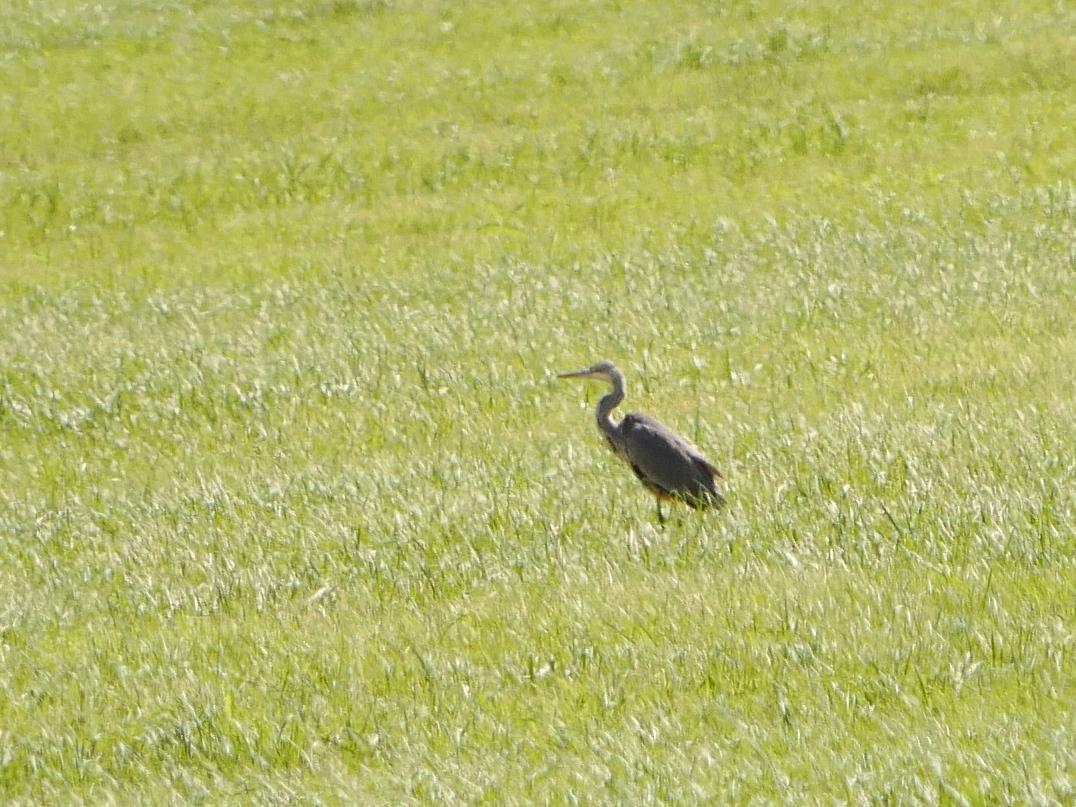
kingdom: Animalia
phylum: Chordata
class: Aves
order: Pelecaniformes
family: Ardeidae
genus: Ardea
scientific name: Ardea cinerea
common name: Grey heron
